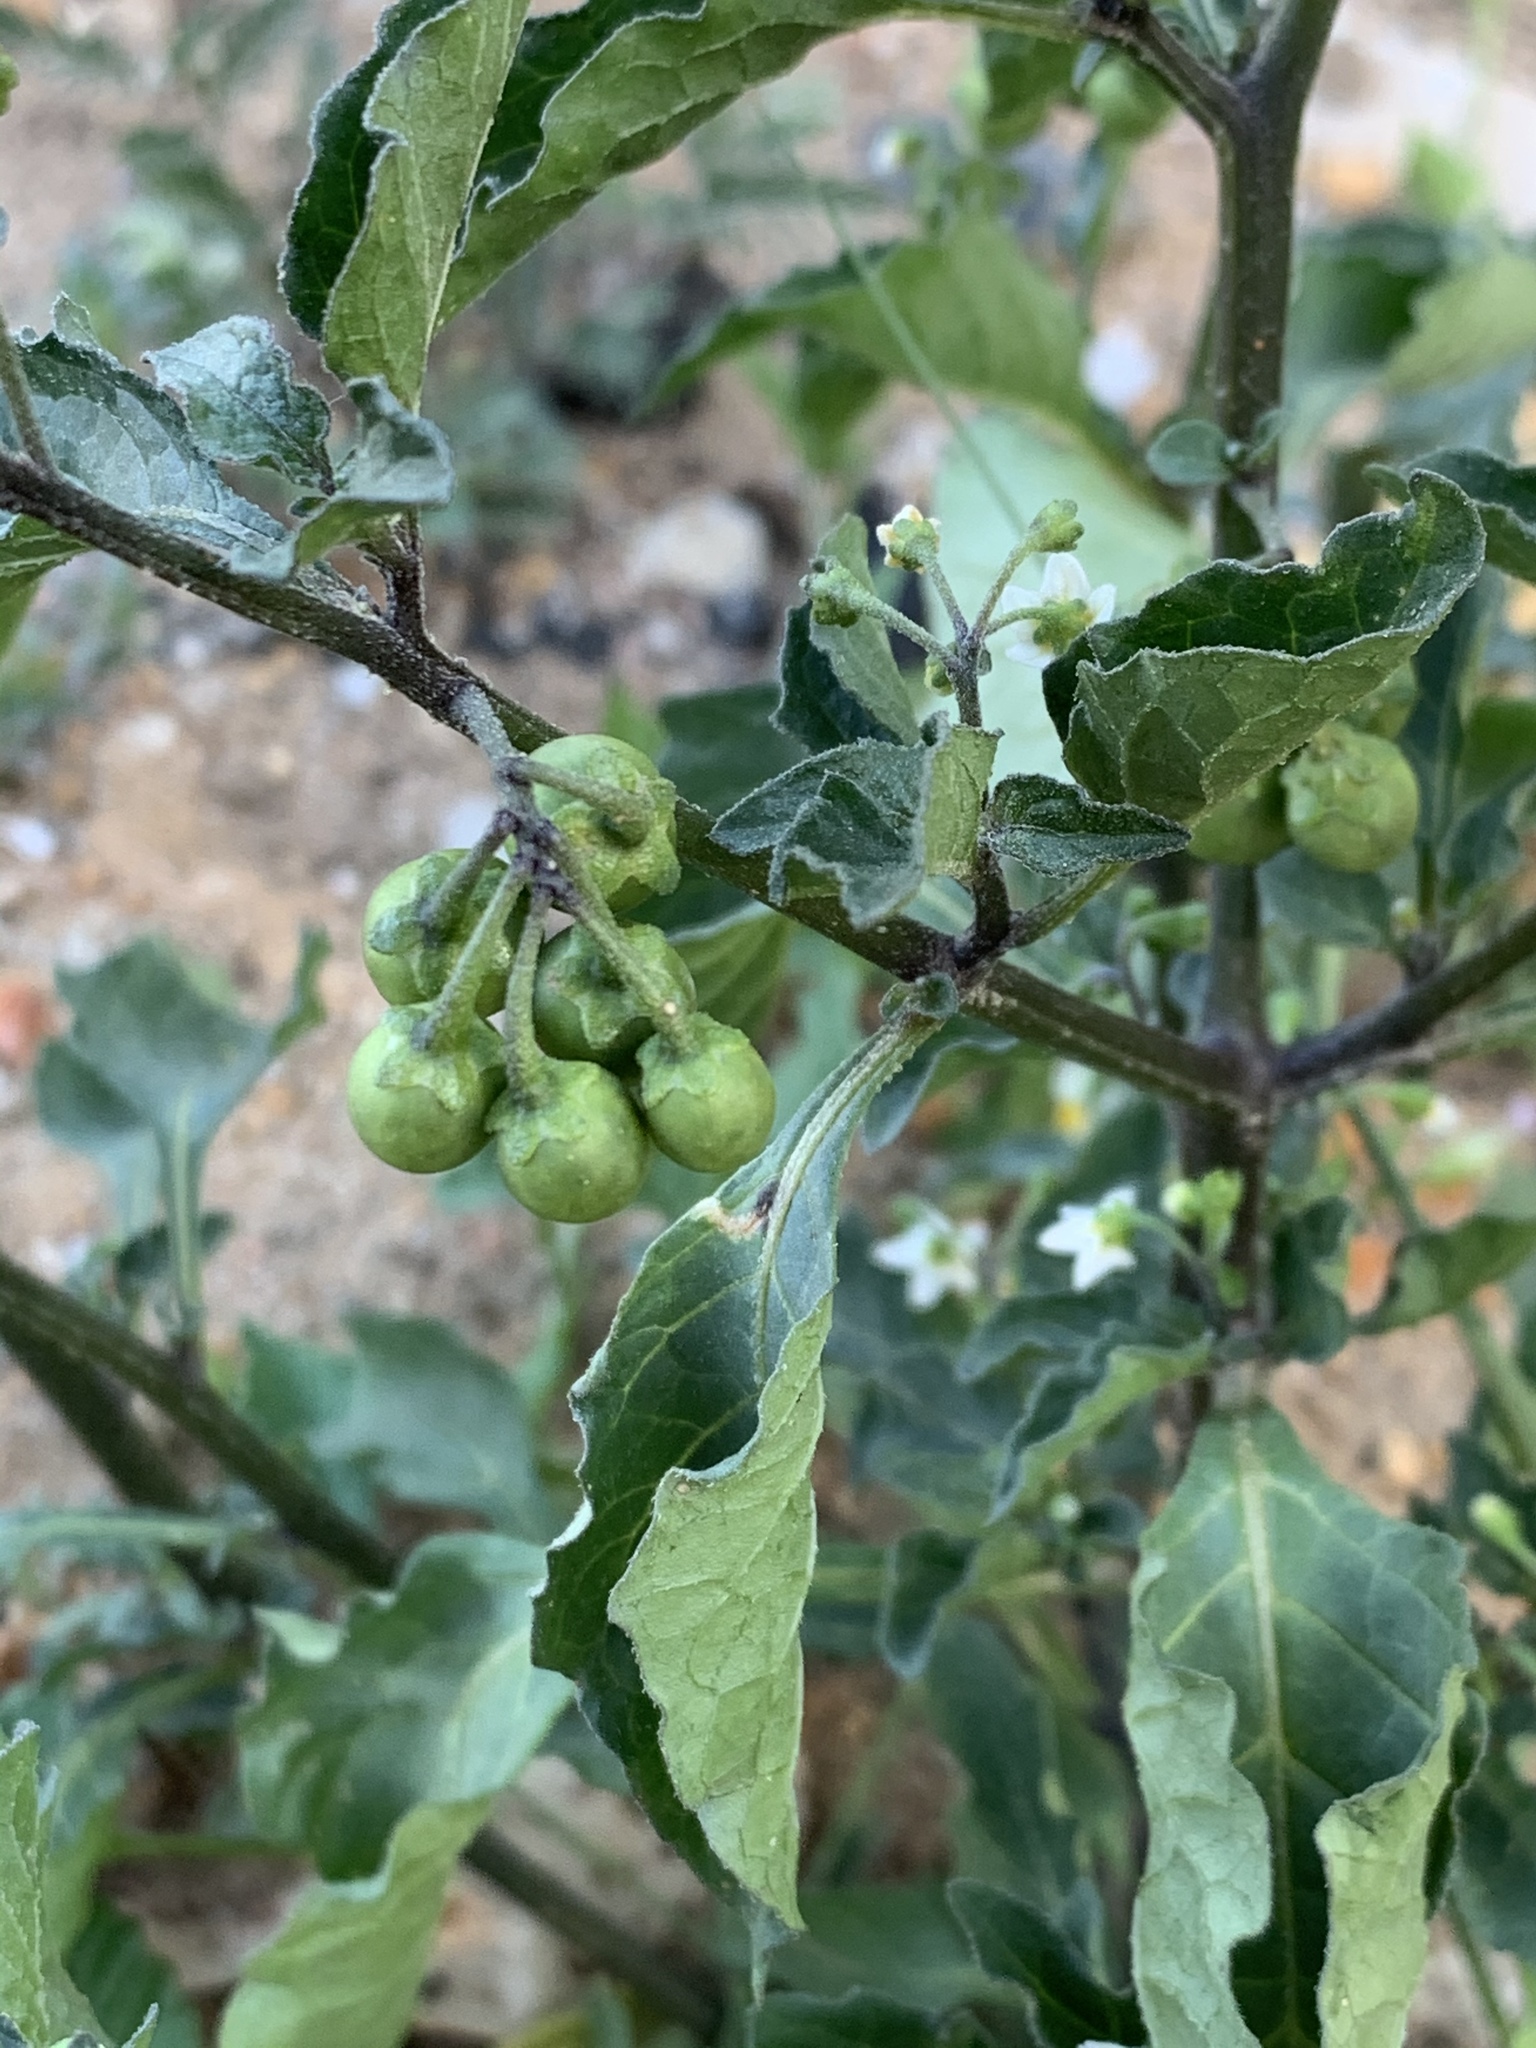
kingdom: Plantae
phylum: Tracheophyta
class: Magnoliopsida
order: Solanales
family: Solanaceae
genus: Solanum
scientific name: Solanum nigrum
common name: Black nightshade
